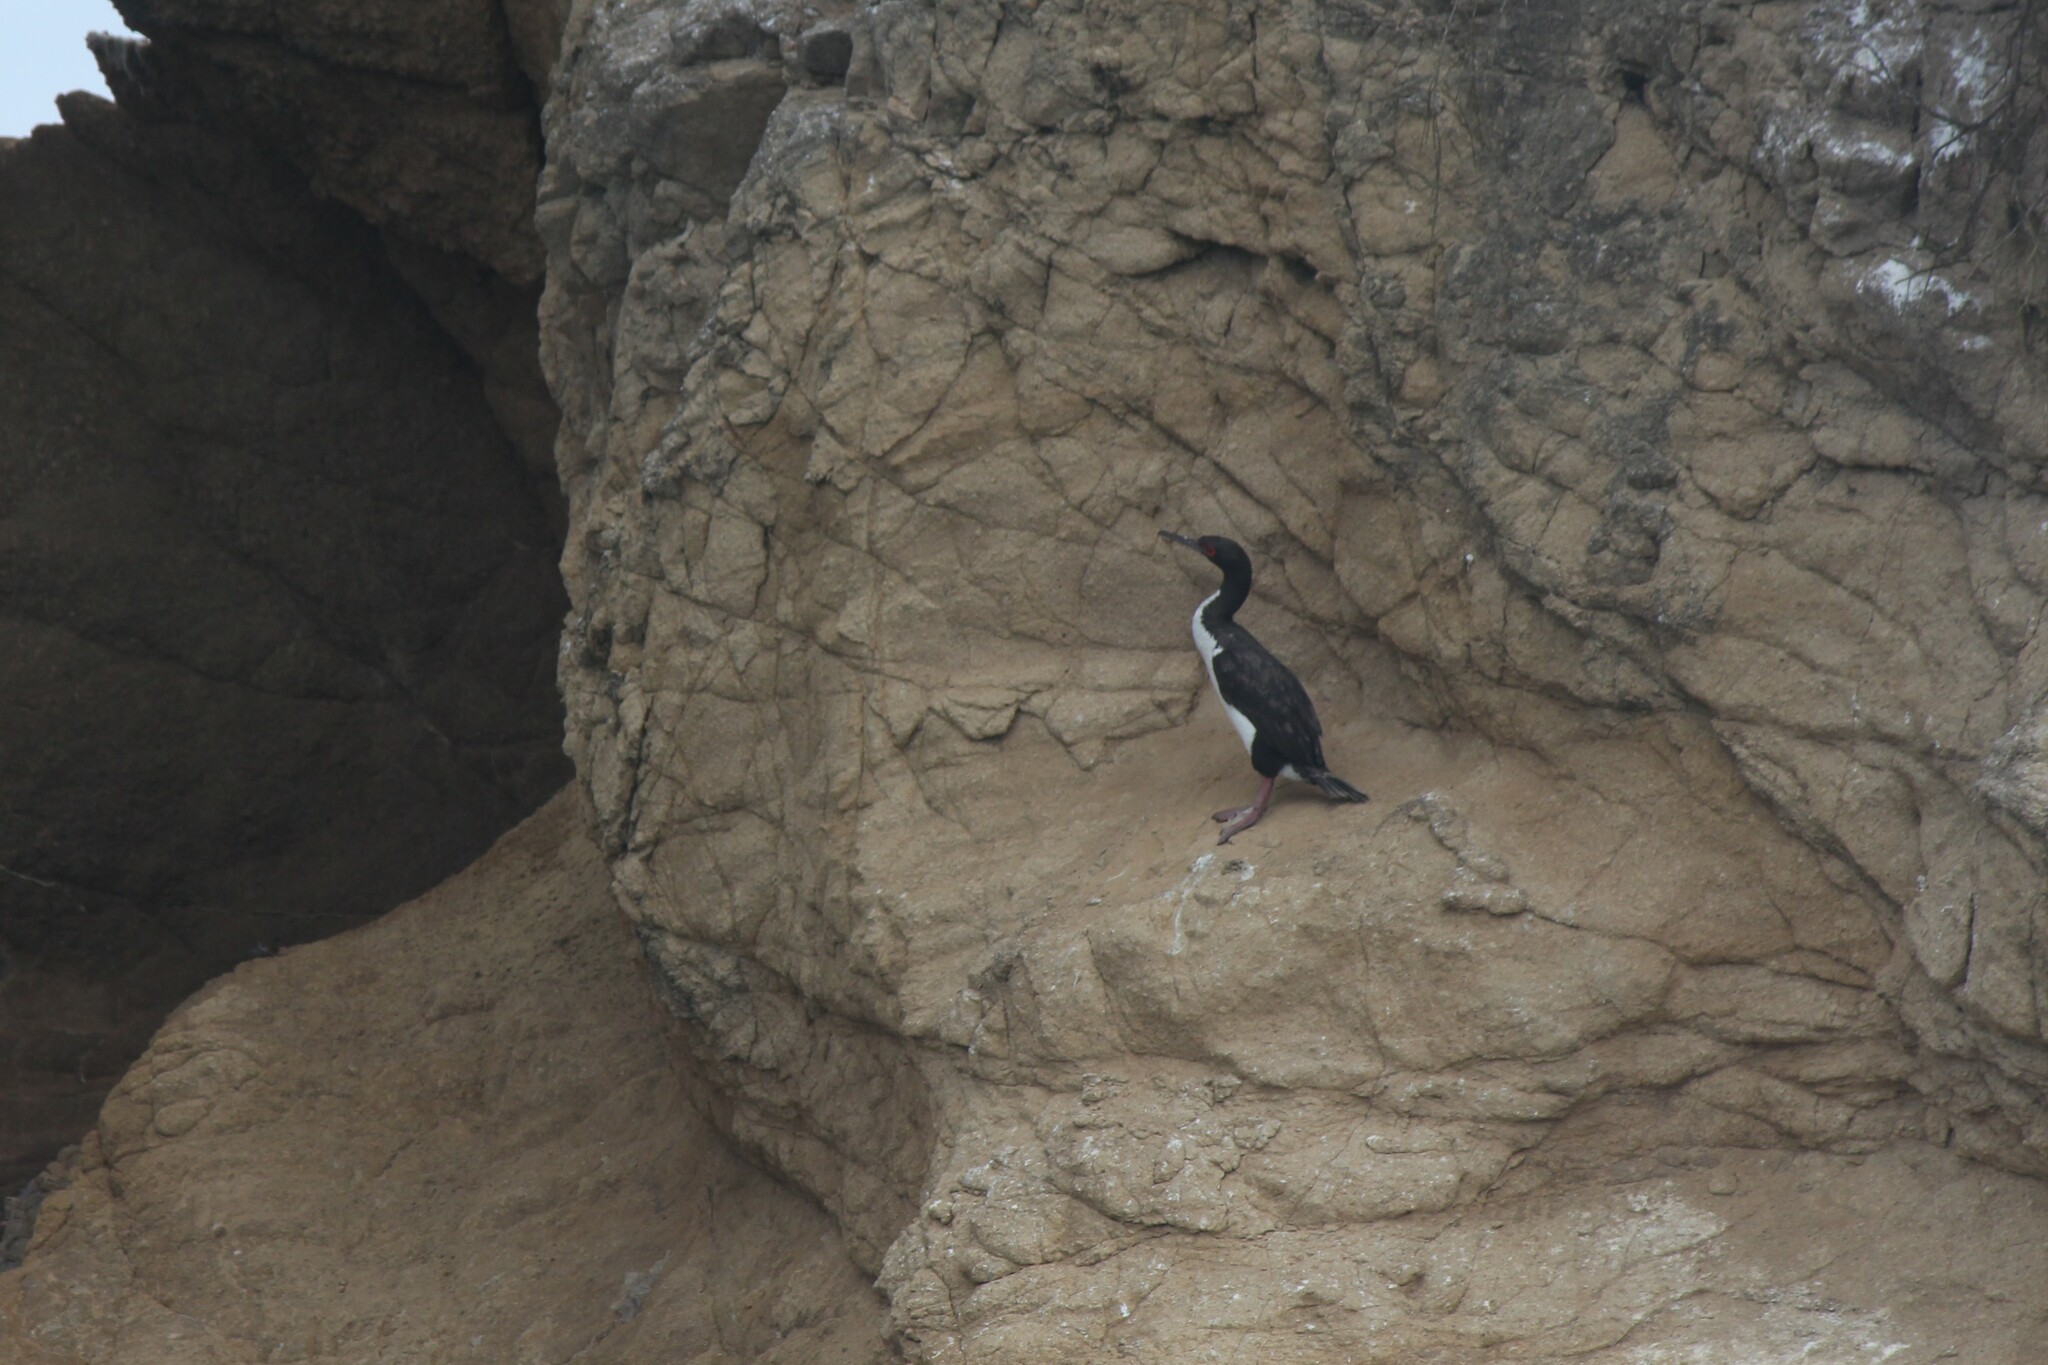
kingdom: Animalia
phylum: Chordata
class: Aves
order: Suliformes
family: Phalacrocoracidae
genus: Leucocarbo
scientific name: Leucocarbo bougainvillii
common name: Guanay cormorant
